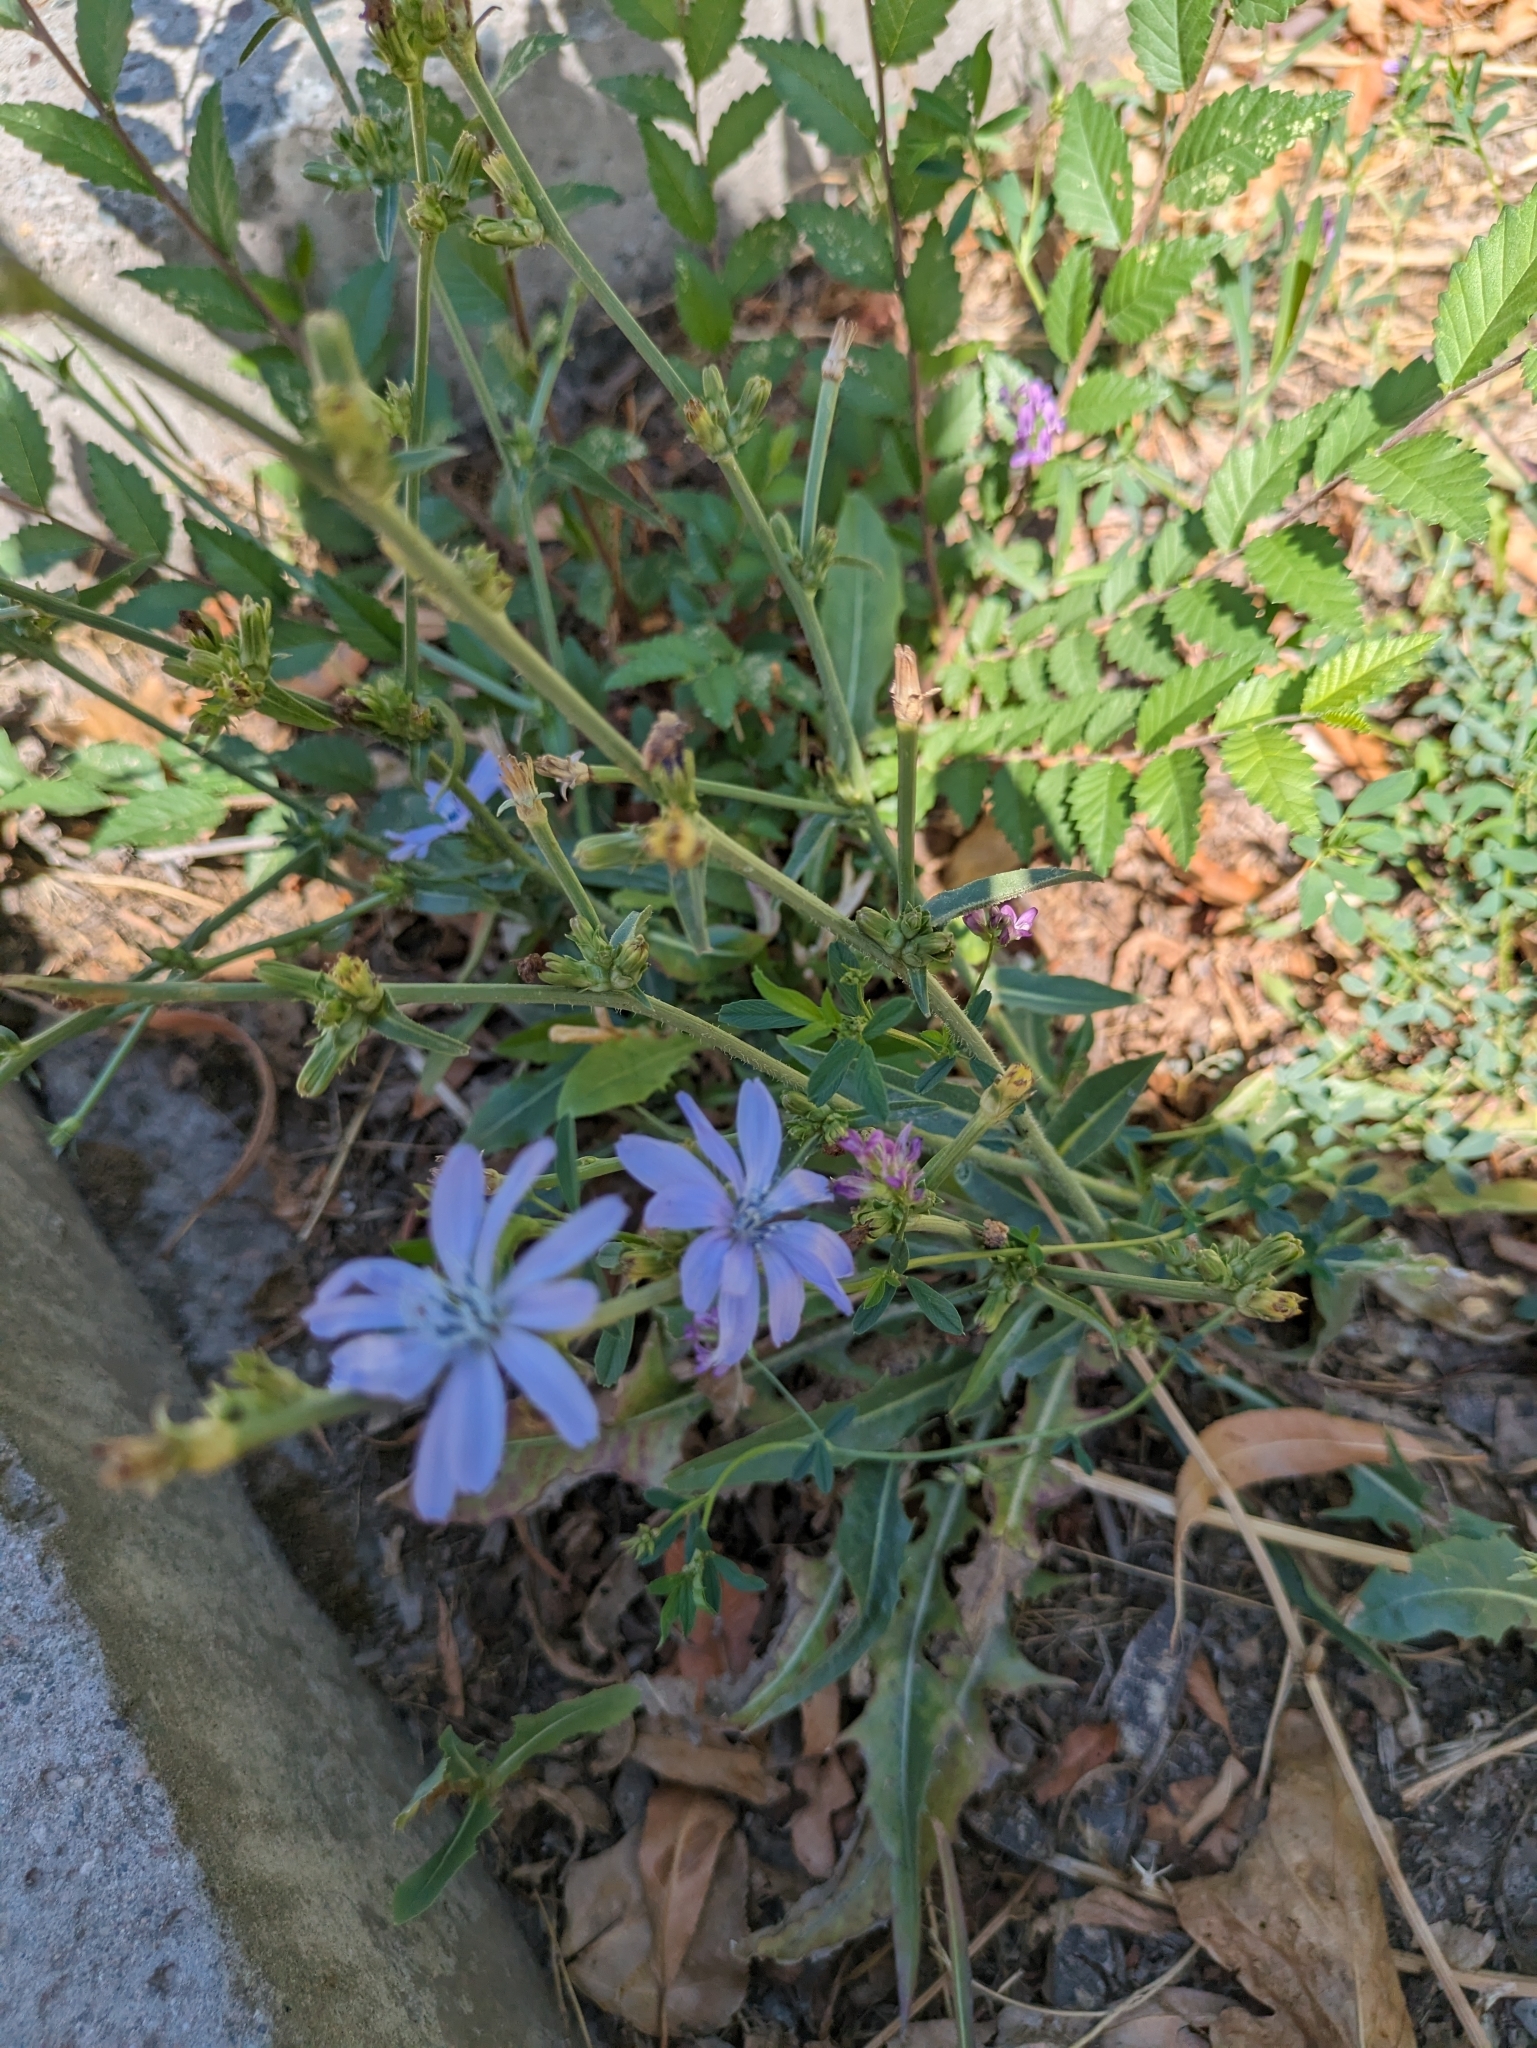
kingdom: Plantae
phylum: Tracheophyta
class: Magnoliopsida
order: Asterales
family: Asteraceae
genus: Cichorium
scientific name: Cichorium intybus
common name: Chicory
